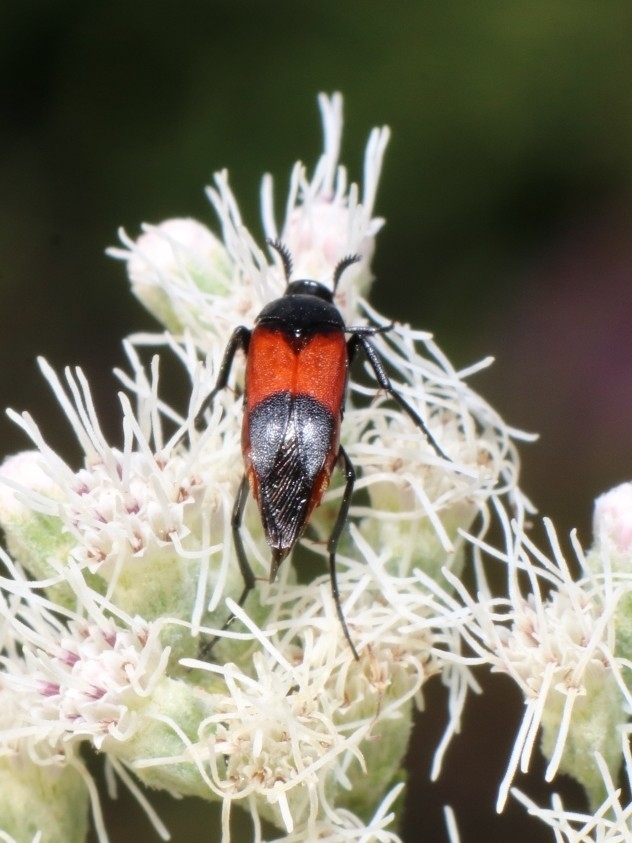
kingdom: Animalia
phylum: Arthropoda
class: Insecta
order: Coleoptera
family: Ripiphoridae
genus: Macrosiagon
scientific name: Macrosiagon cruentum
